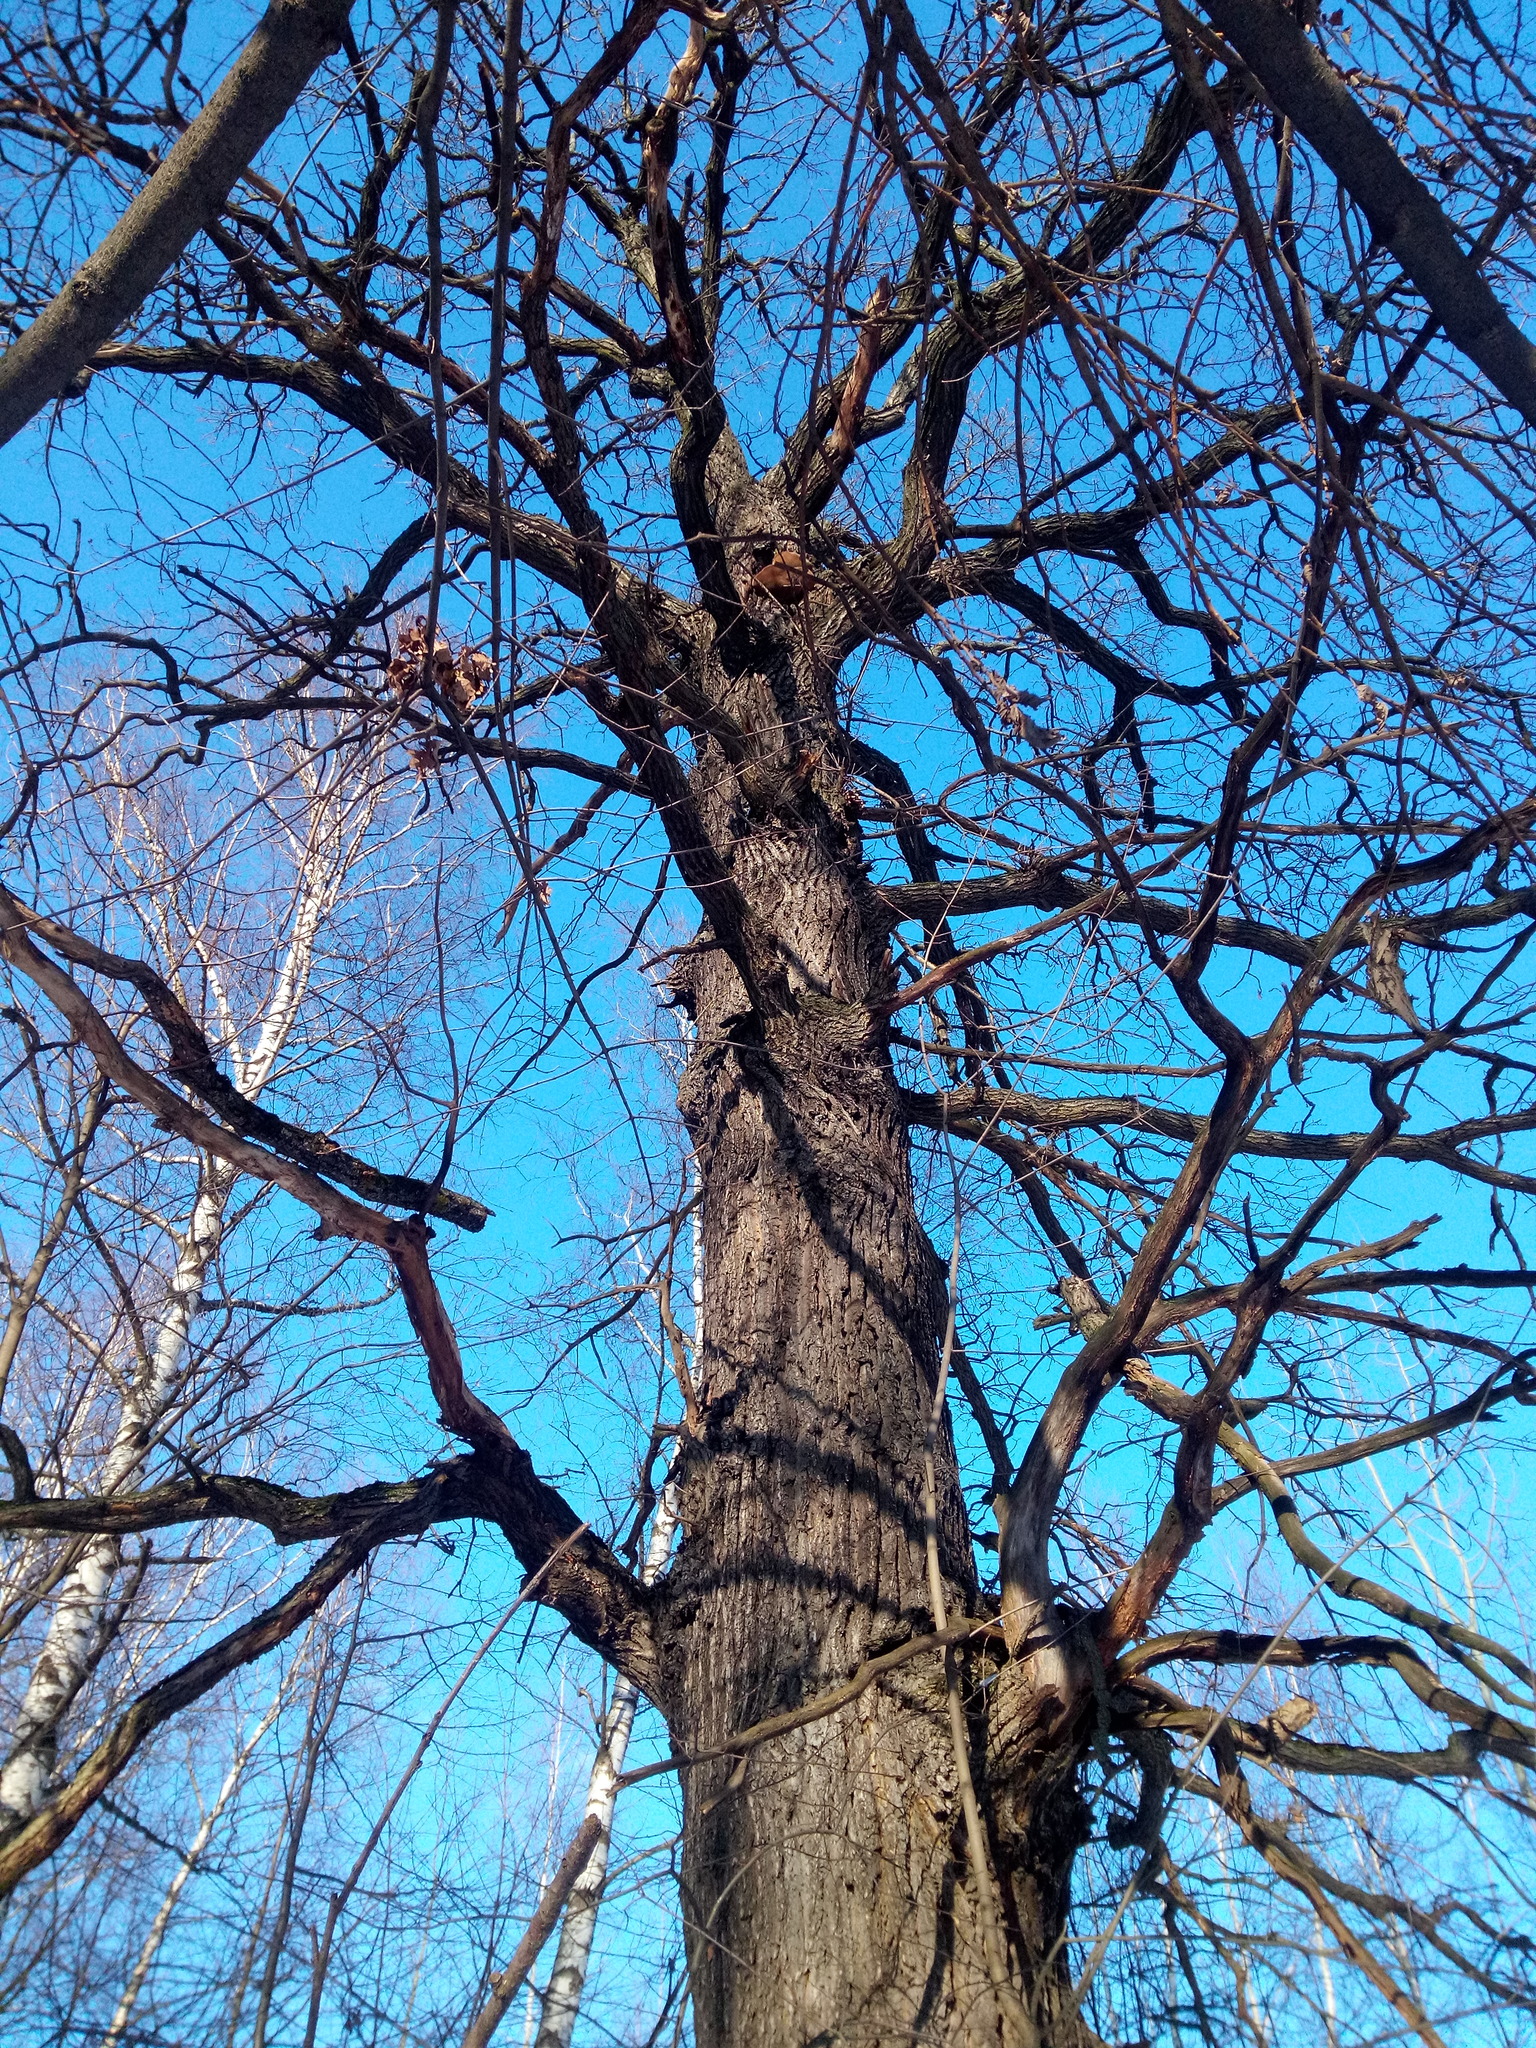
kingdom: Plantae
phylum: Tracheophyta
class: Magnoliopsida
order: Fagales
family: Fagaceae
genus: Quercus
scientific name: Quercus robur
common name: Pedunculate oak
